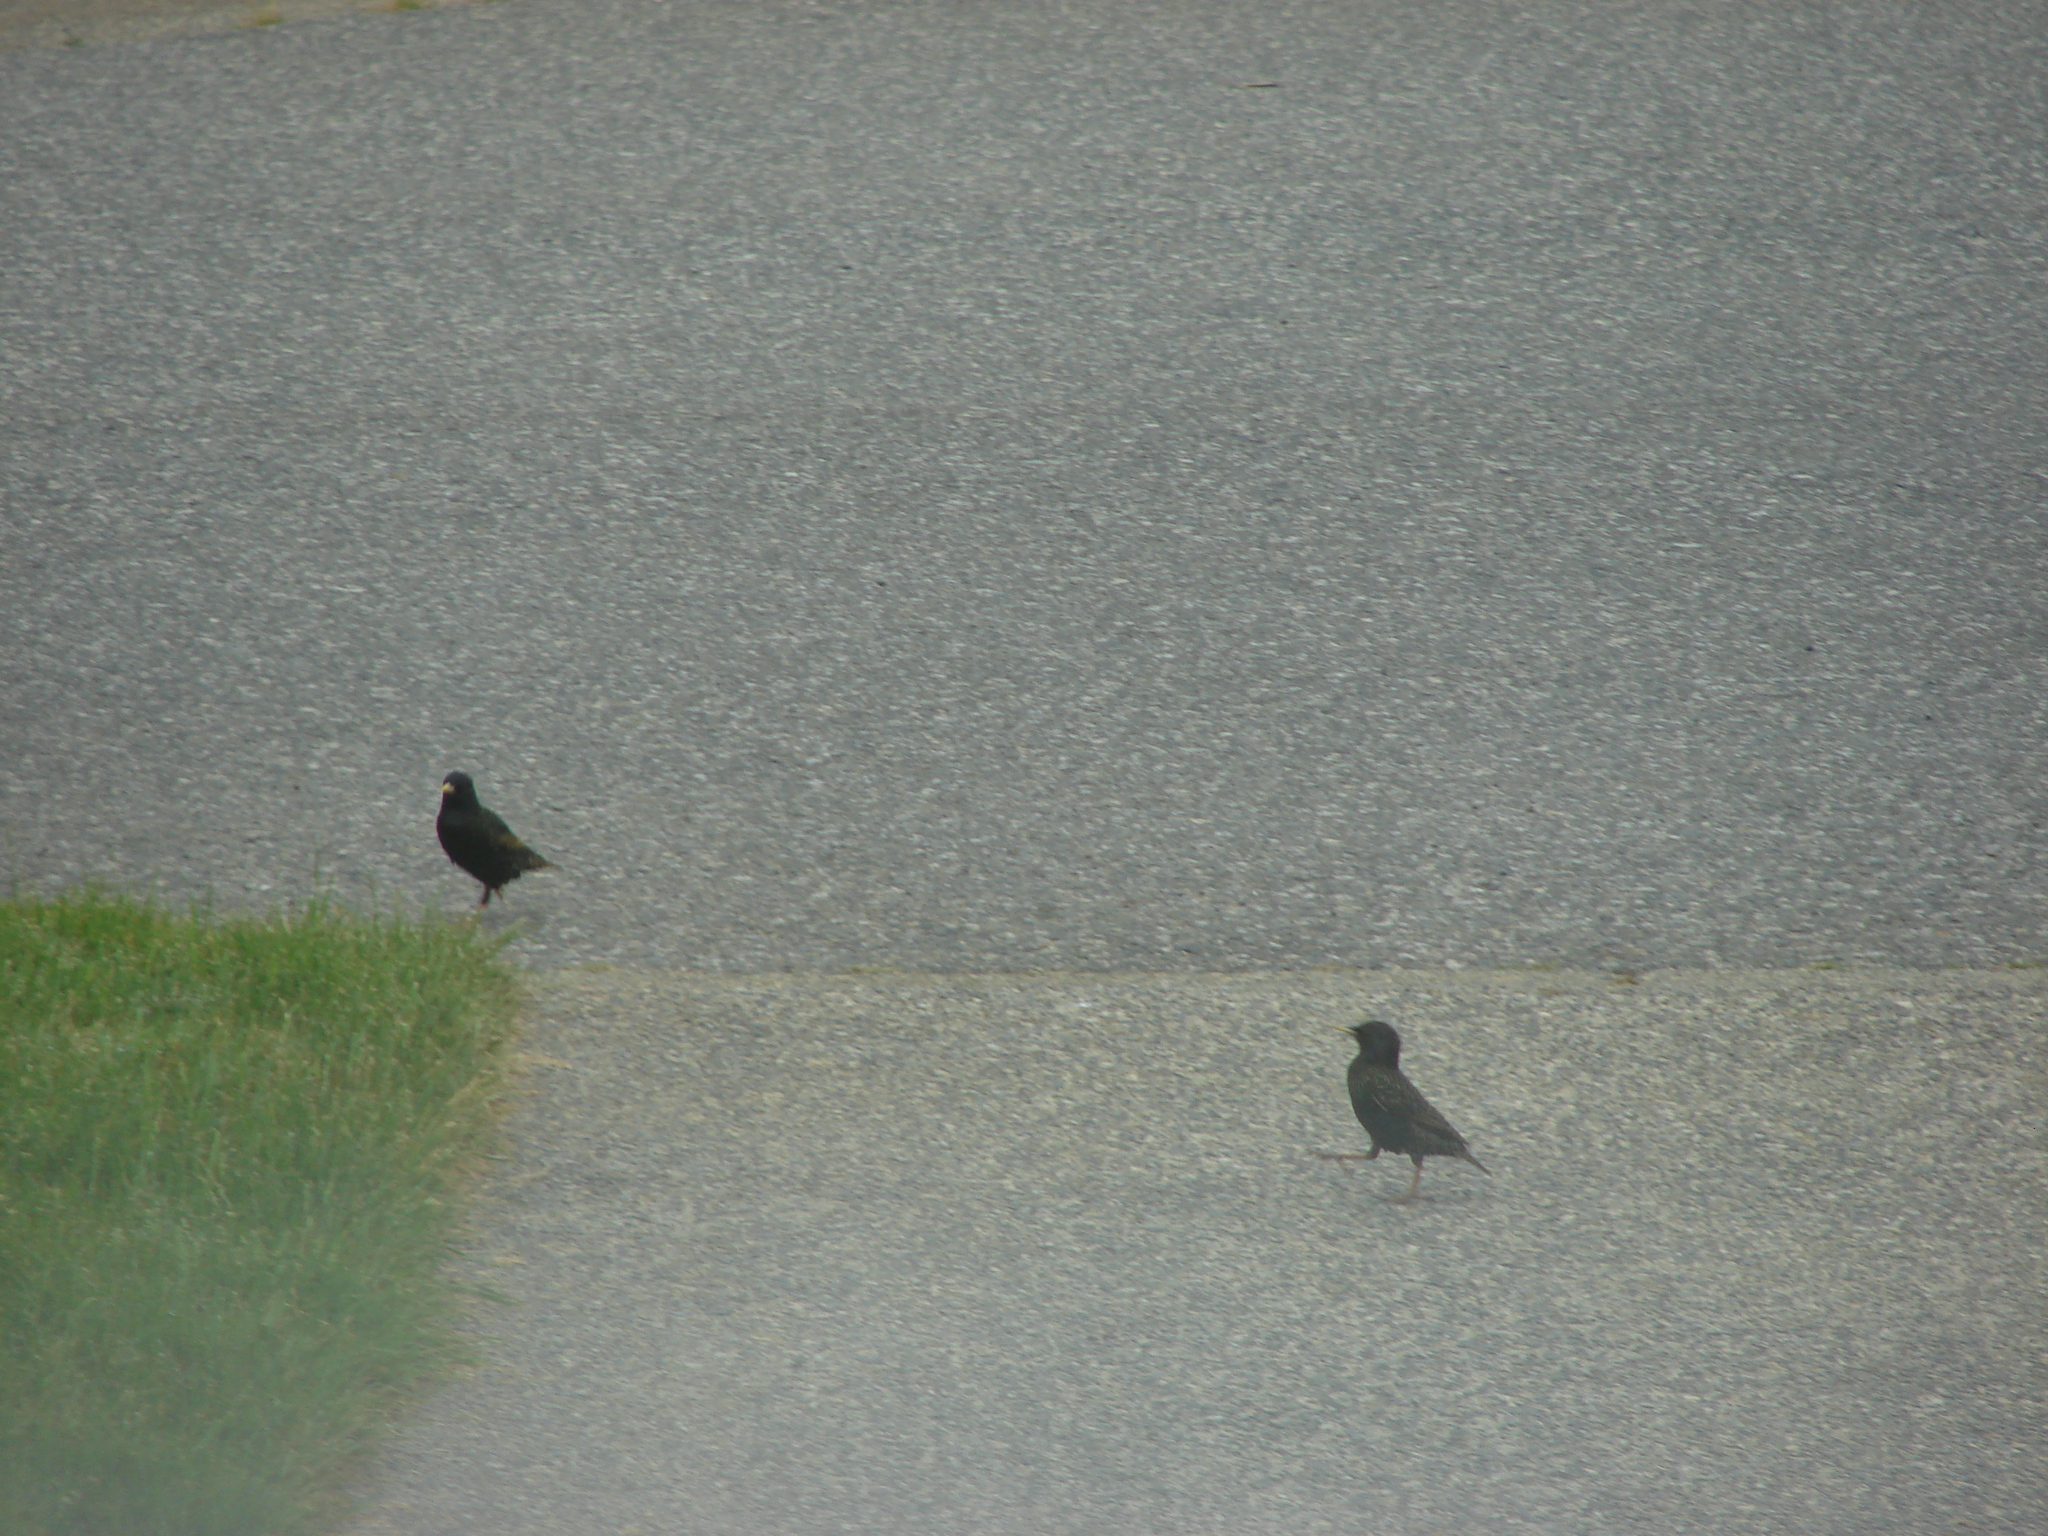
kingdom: Animalia
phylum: Chordata
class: Aves
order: Passeriformes
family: Sturnidae
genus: Sturnus
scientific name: Sturnus vulgaris
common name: Common starling
